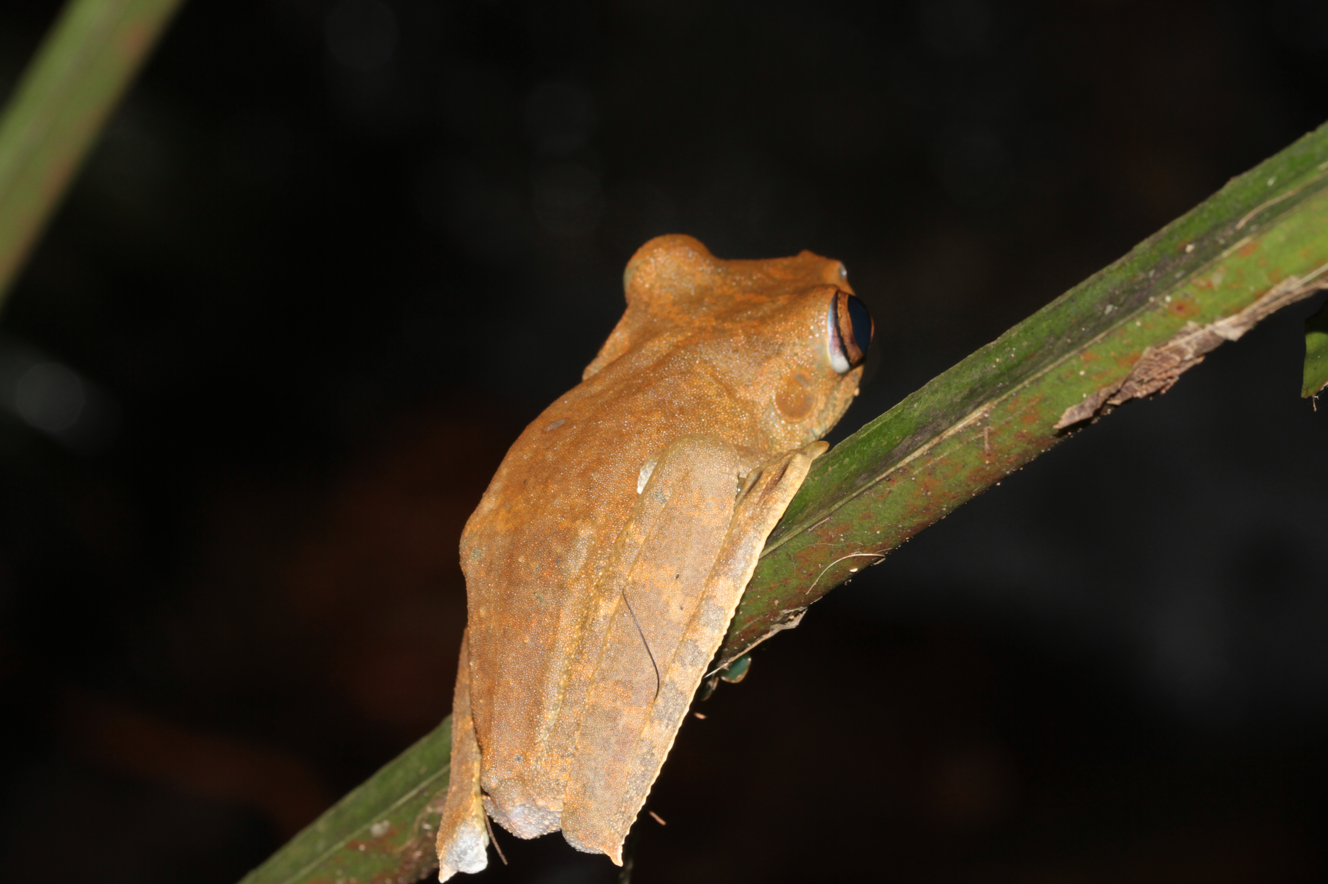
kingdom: Animalia
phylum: Chordata
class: Amphibia
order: Anura
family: Hylidae
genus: Boana
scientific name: Boana boans
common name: Giant gladiator treefrog
